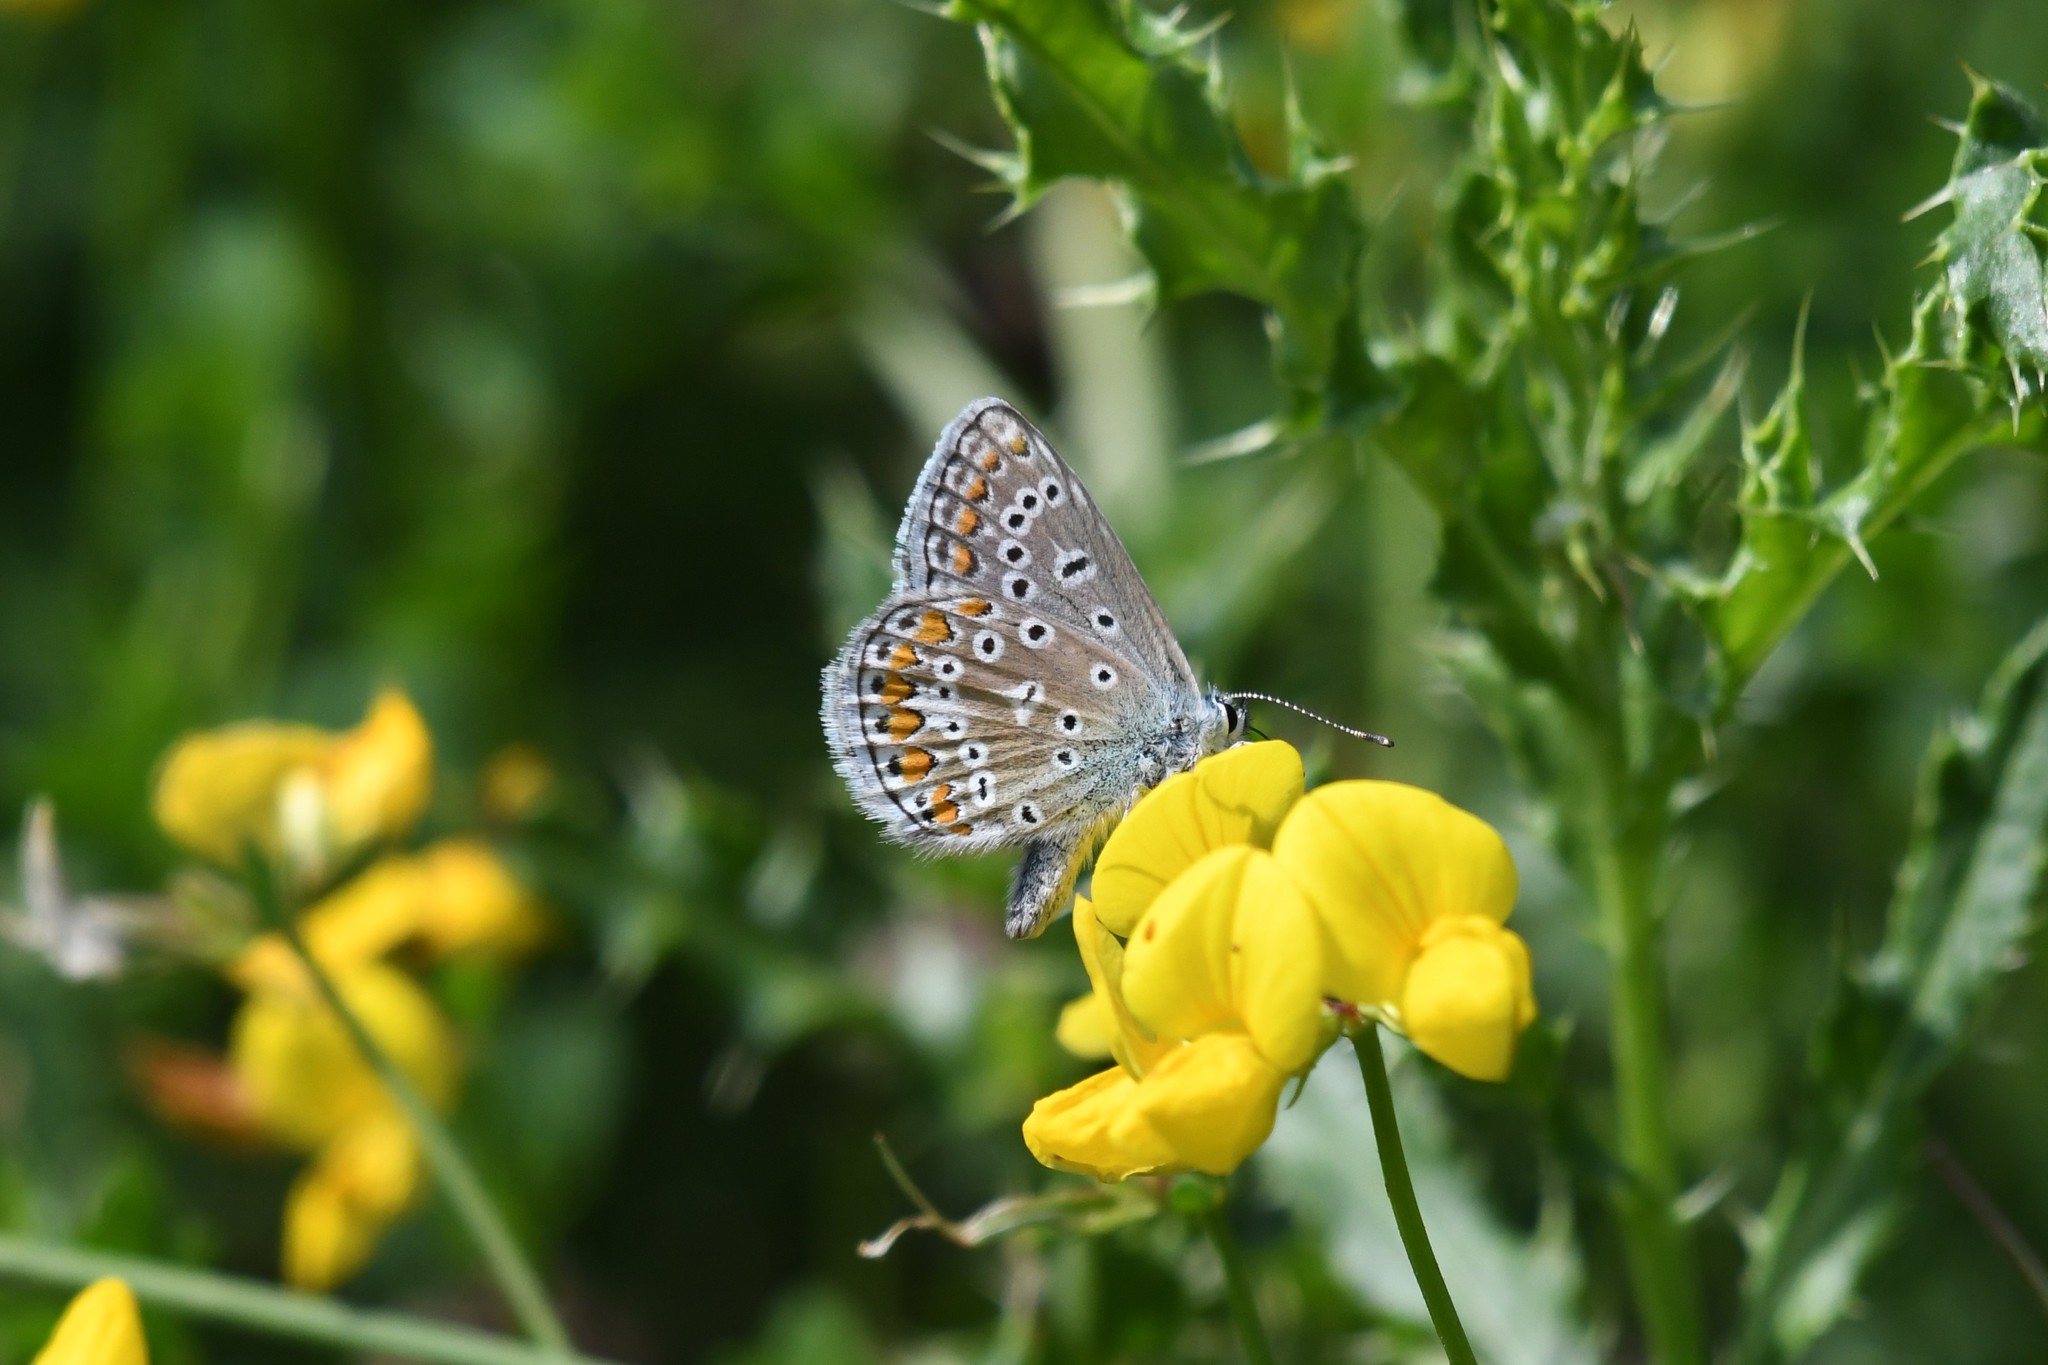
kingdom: Animalia
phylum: Arthropoda
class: Insecta
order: Lepidoptera
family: Lycaenidae
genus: Polyommatus
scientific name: Polyommatus icarus
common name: Common blue
